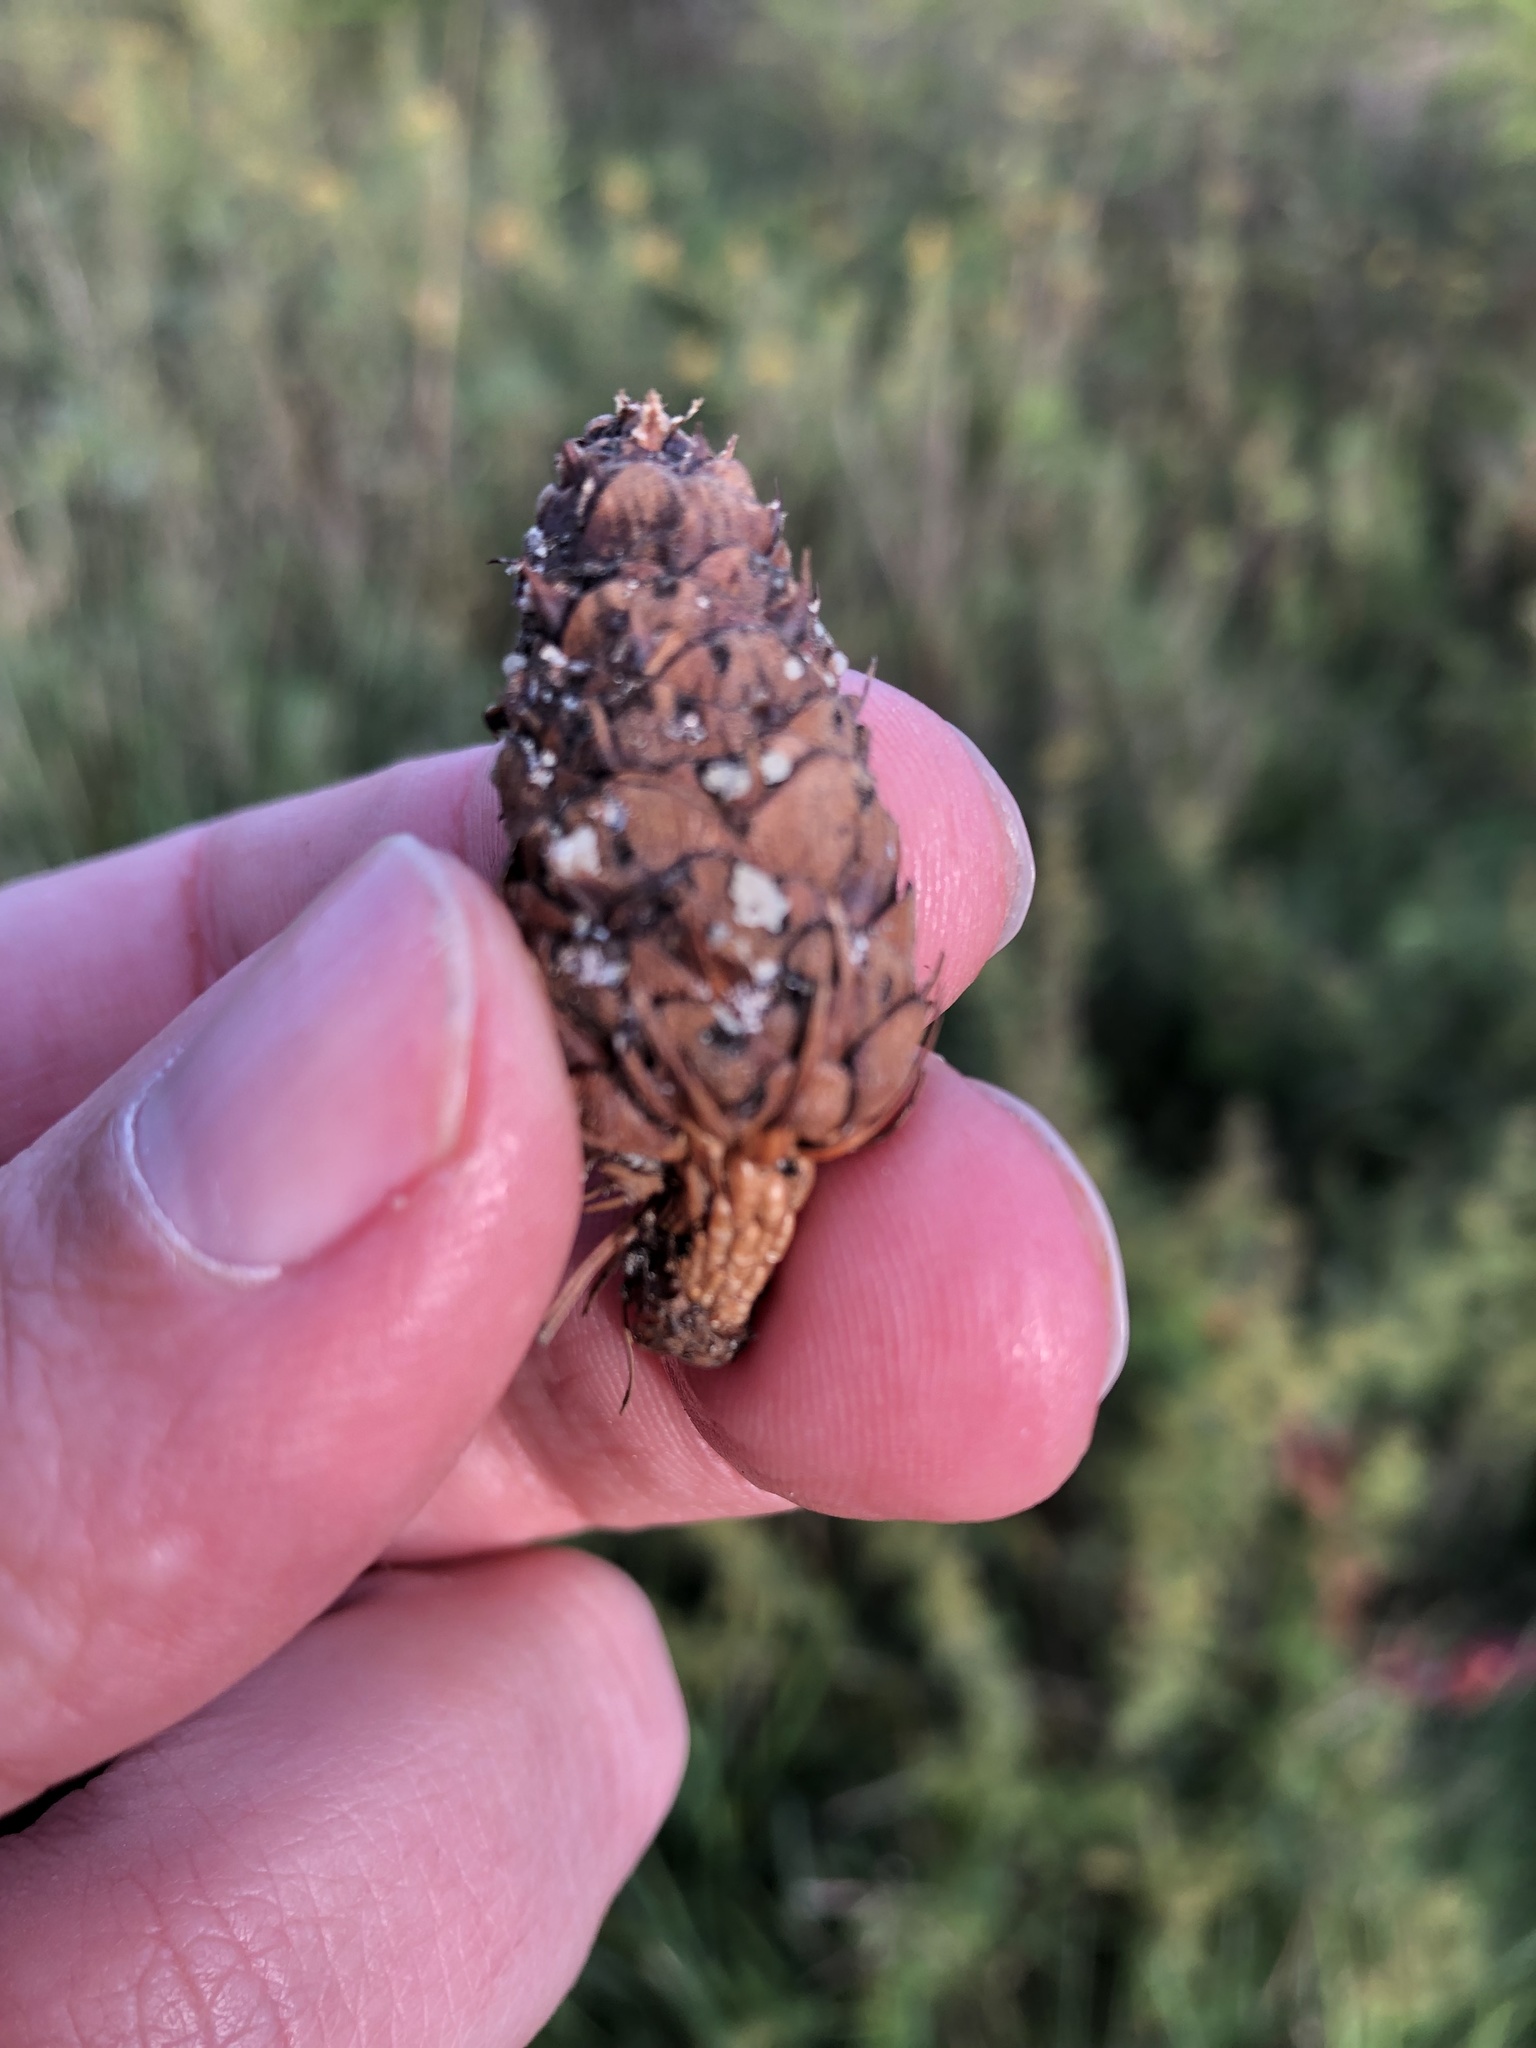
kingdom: Plantae
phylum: Tracheophyta
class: Pinopsida
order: Pinales
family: Pinaceae
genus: Picea
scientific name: Picea glauca
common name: White spruce
